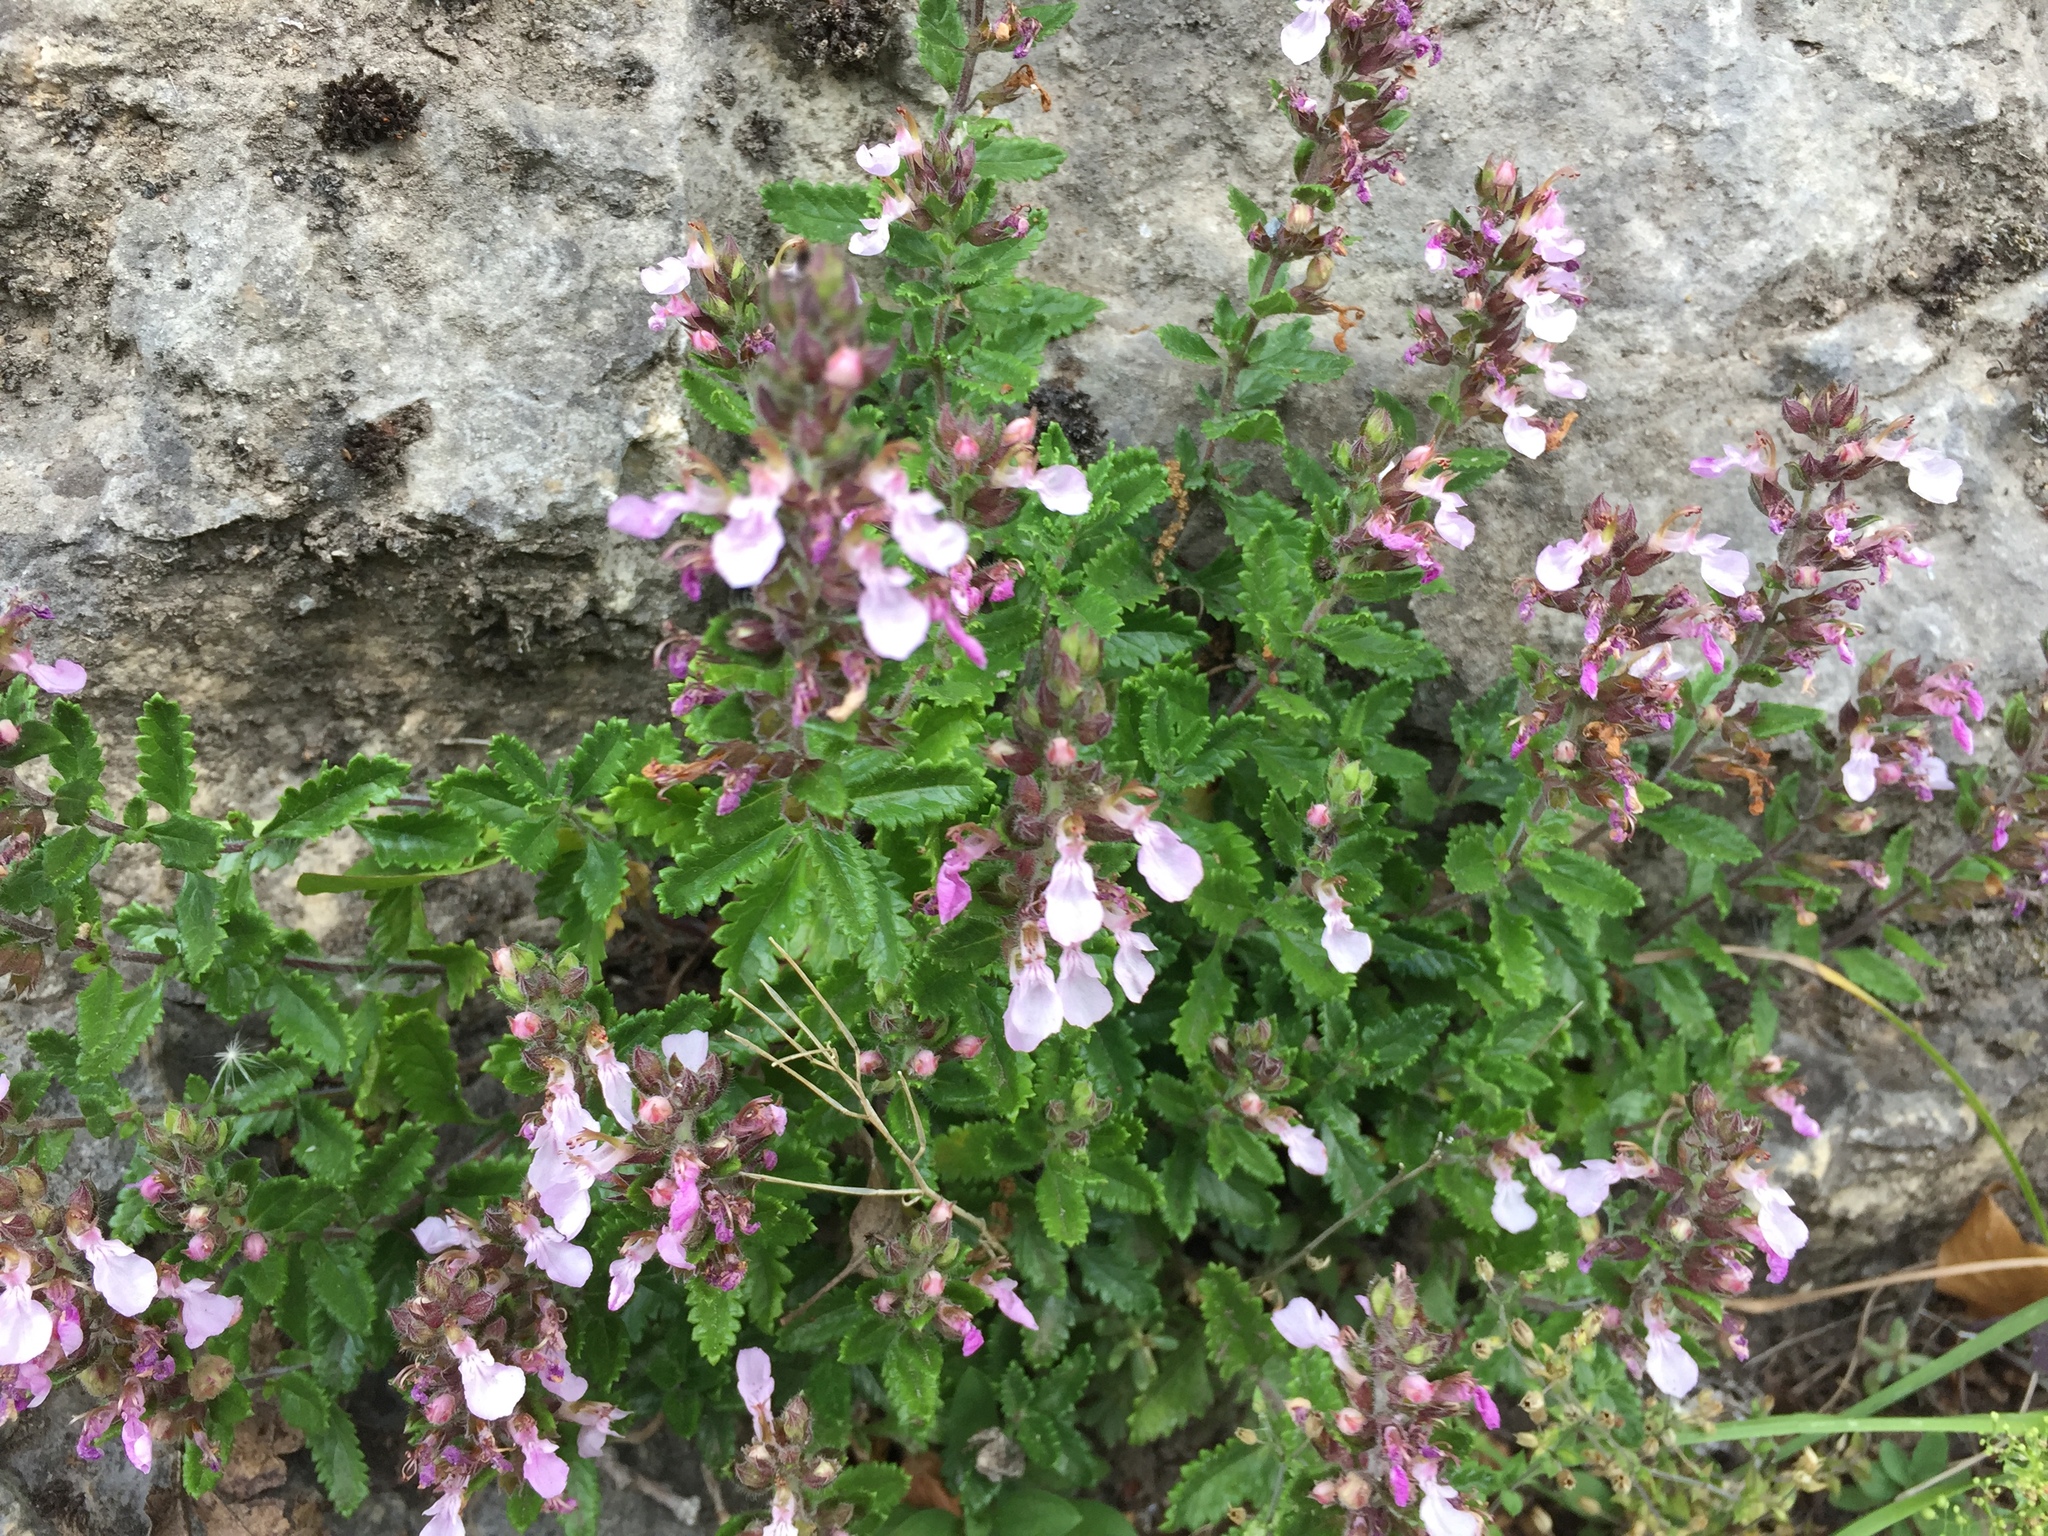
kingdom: Plantae
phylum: Tracheophyta
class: Magnoliopsida
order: Lamiales
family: Lamiaceae
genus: Teucrium
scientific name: Teucrium chamaedrys
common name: Wall germander
